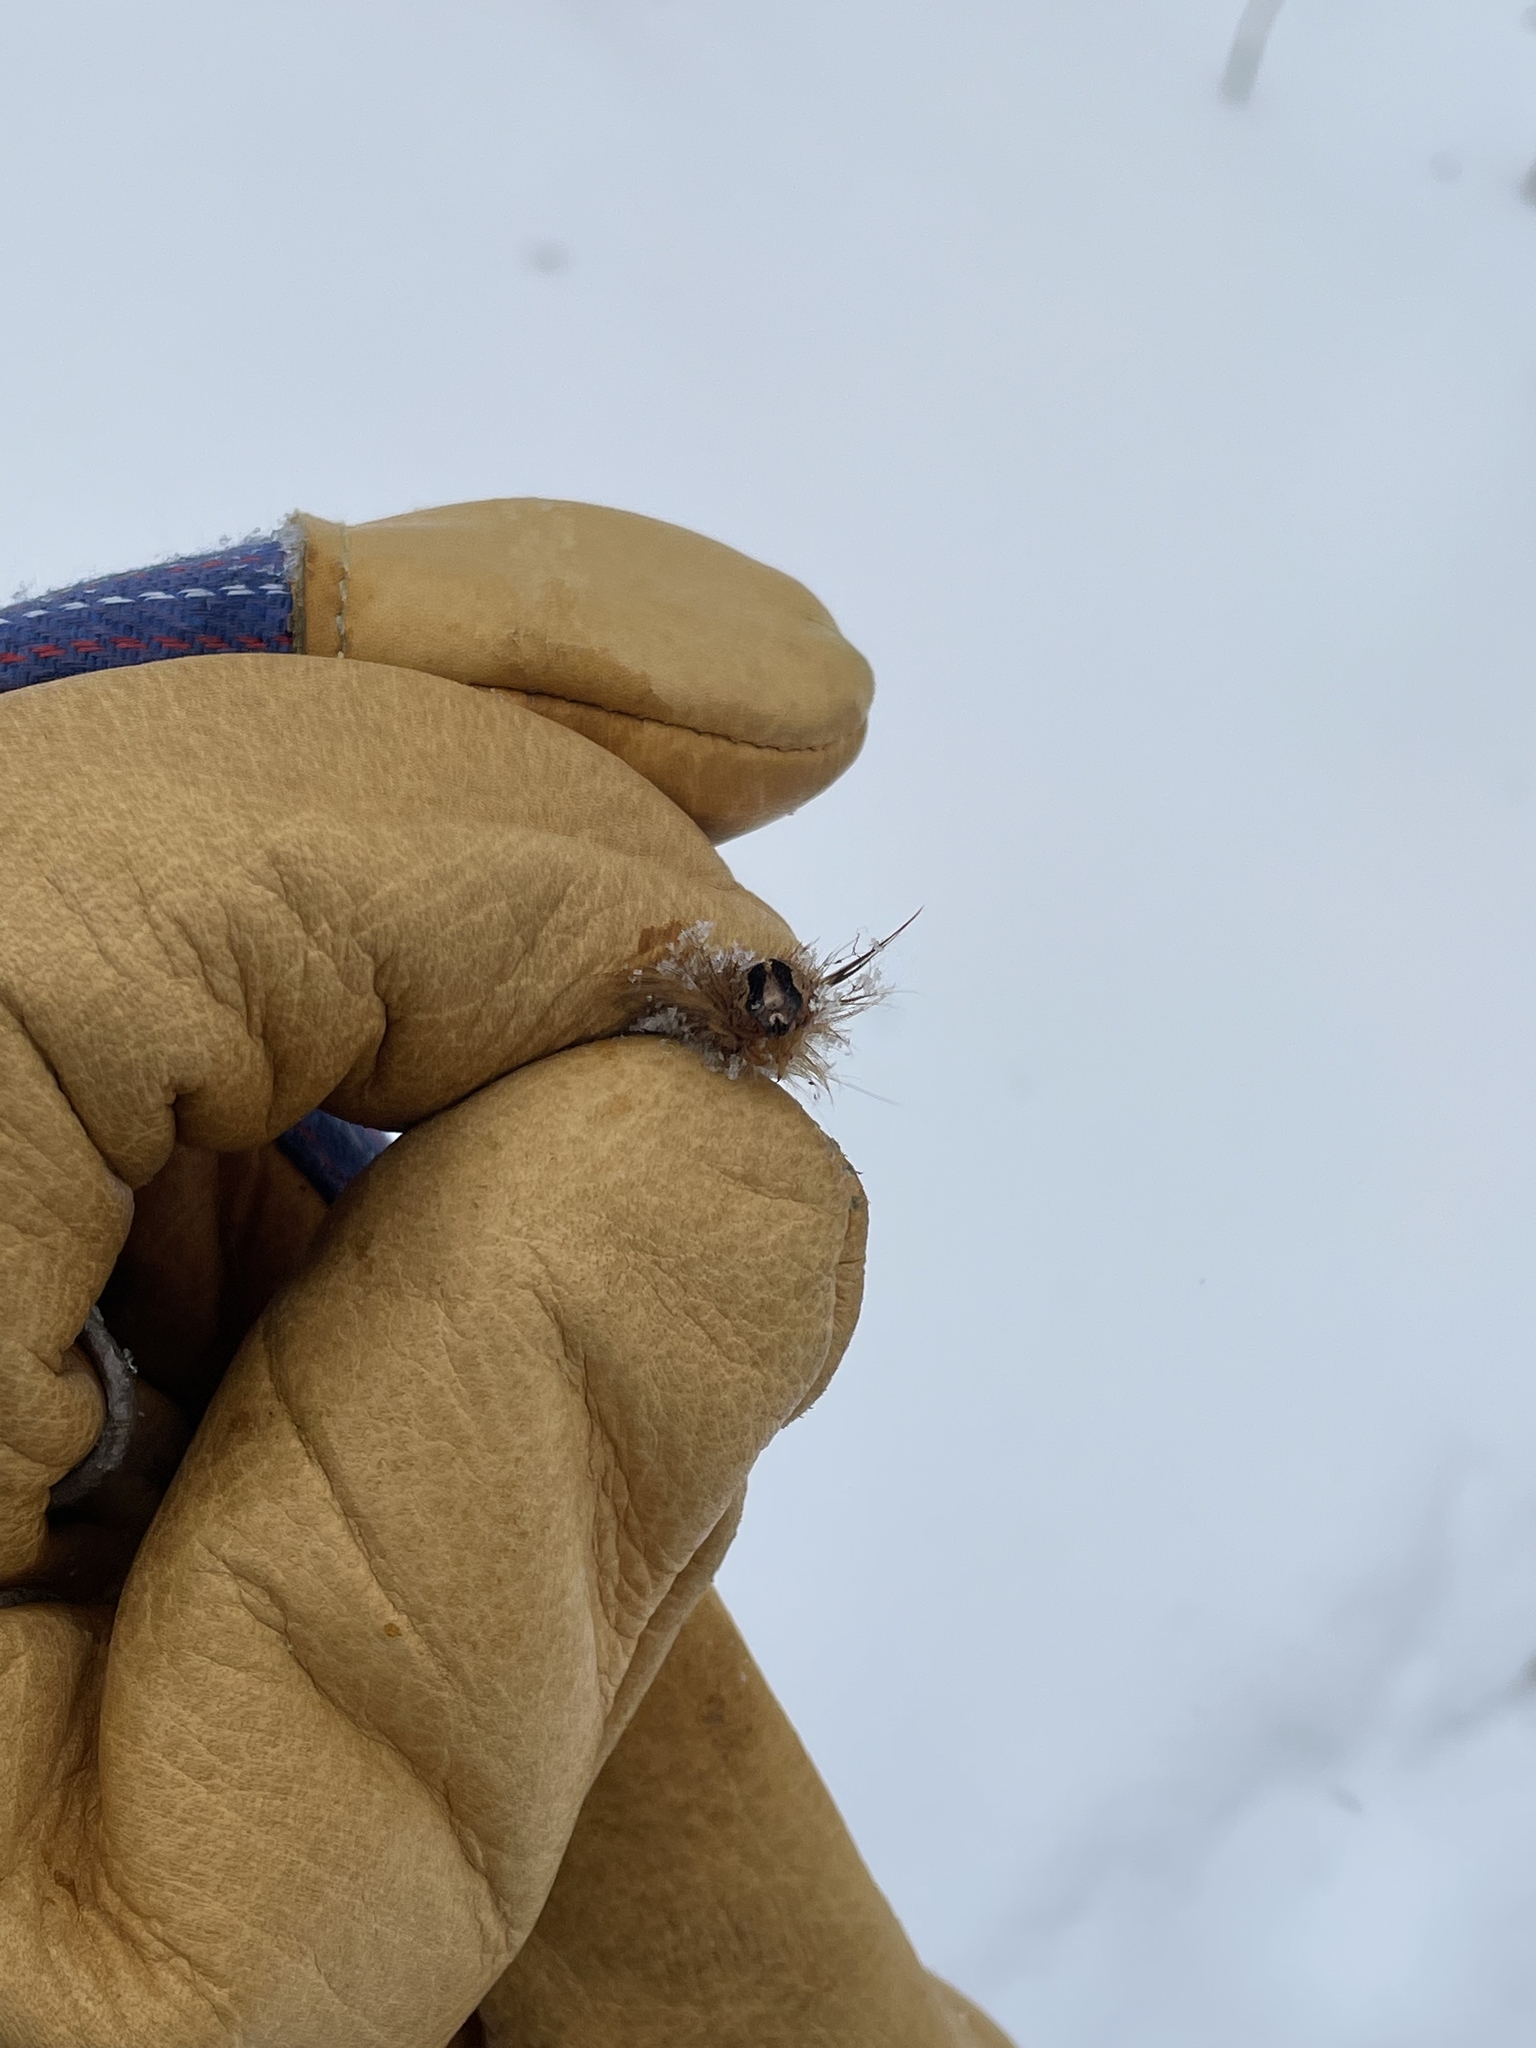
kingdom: Animalia
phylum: Arthropoda
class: Insecta
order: Lepidoptera
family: Erebidae
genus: Lymantria
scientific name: Lymantria dispar
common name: Gypsy moth
